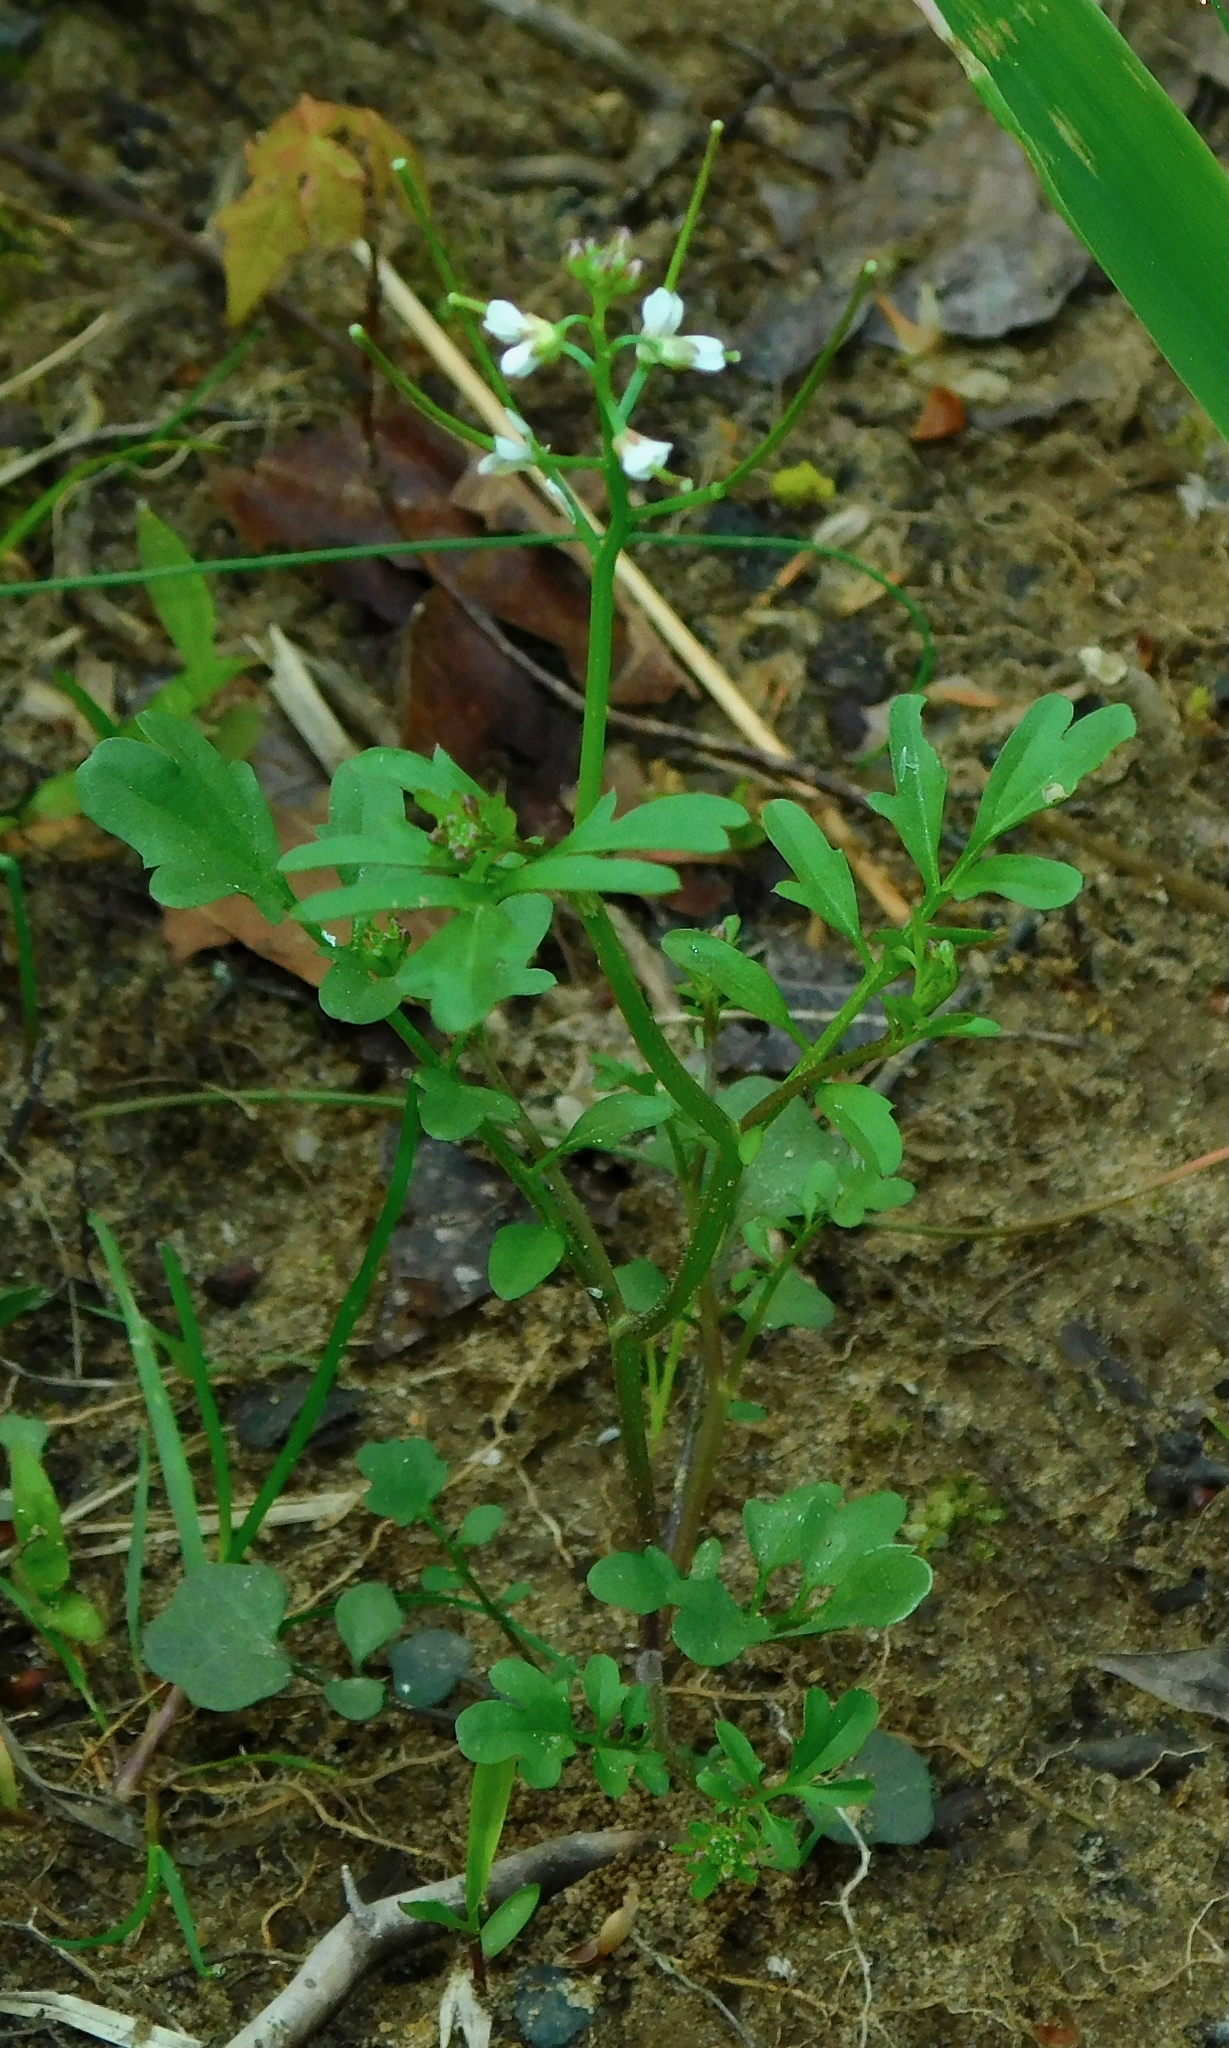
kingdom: Plantae
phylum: Tracheophyta
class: Magnoliopsida
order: Brassicales
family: Brassicaceae
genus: Cardamine
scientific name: Cardamine hirsuta
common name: Hairy bittercress
